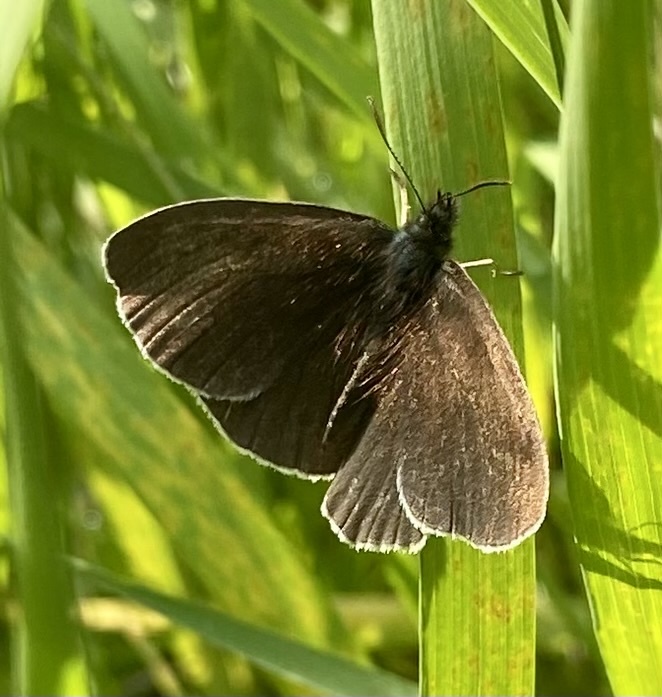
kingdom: Animalia
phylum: Arthropoda
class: Insecta
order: Lepidoptera
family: Nymphalidae
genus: Aphantopus
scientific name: Aphantopus hyperantus
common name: Ringlet
